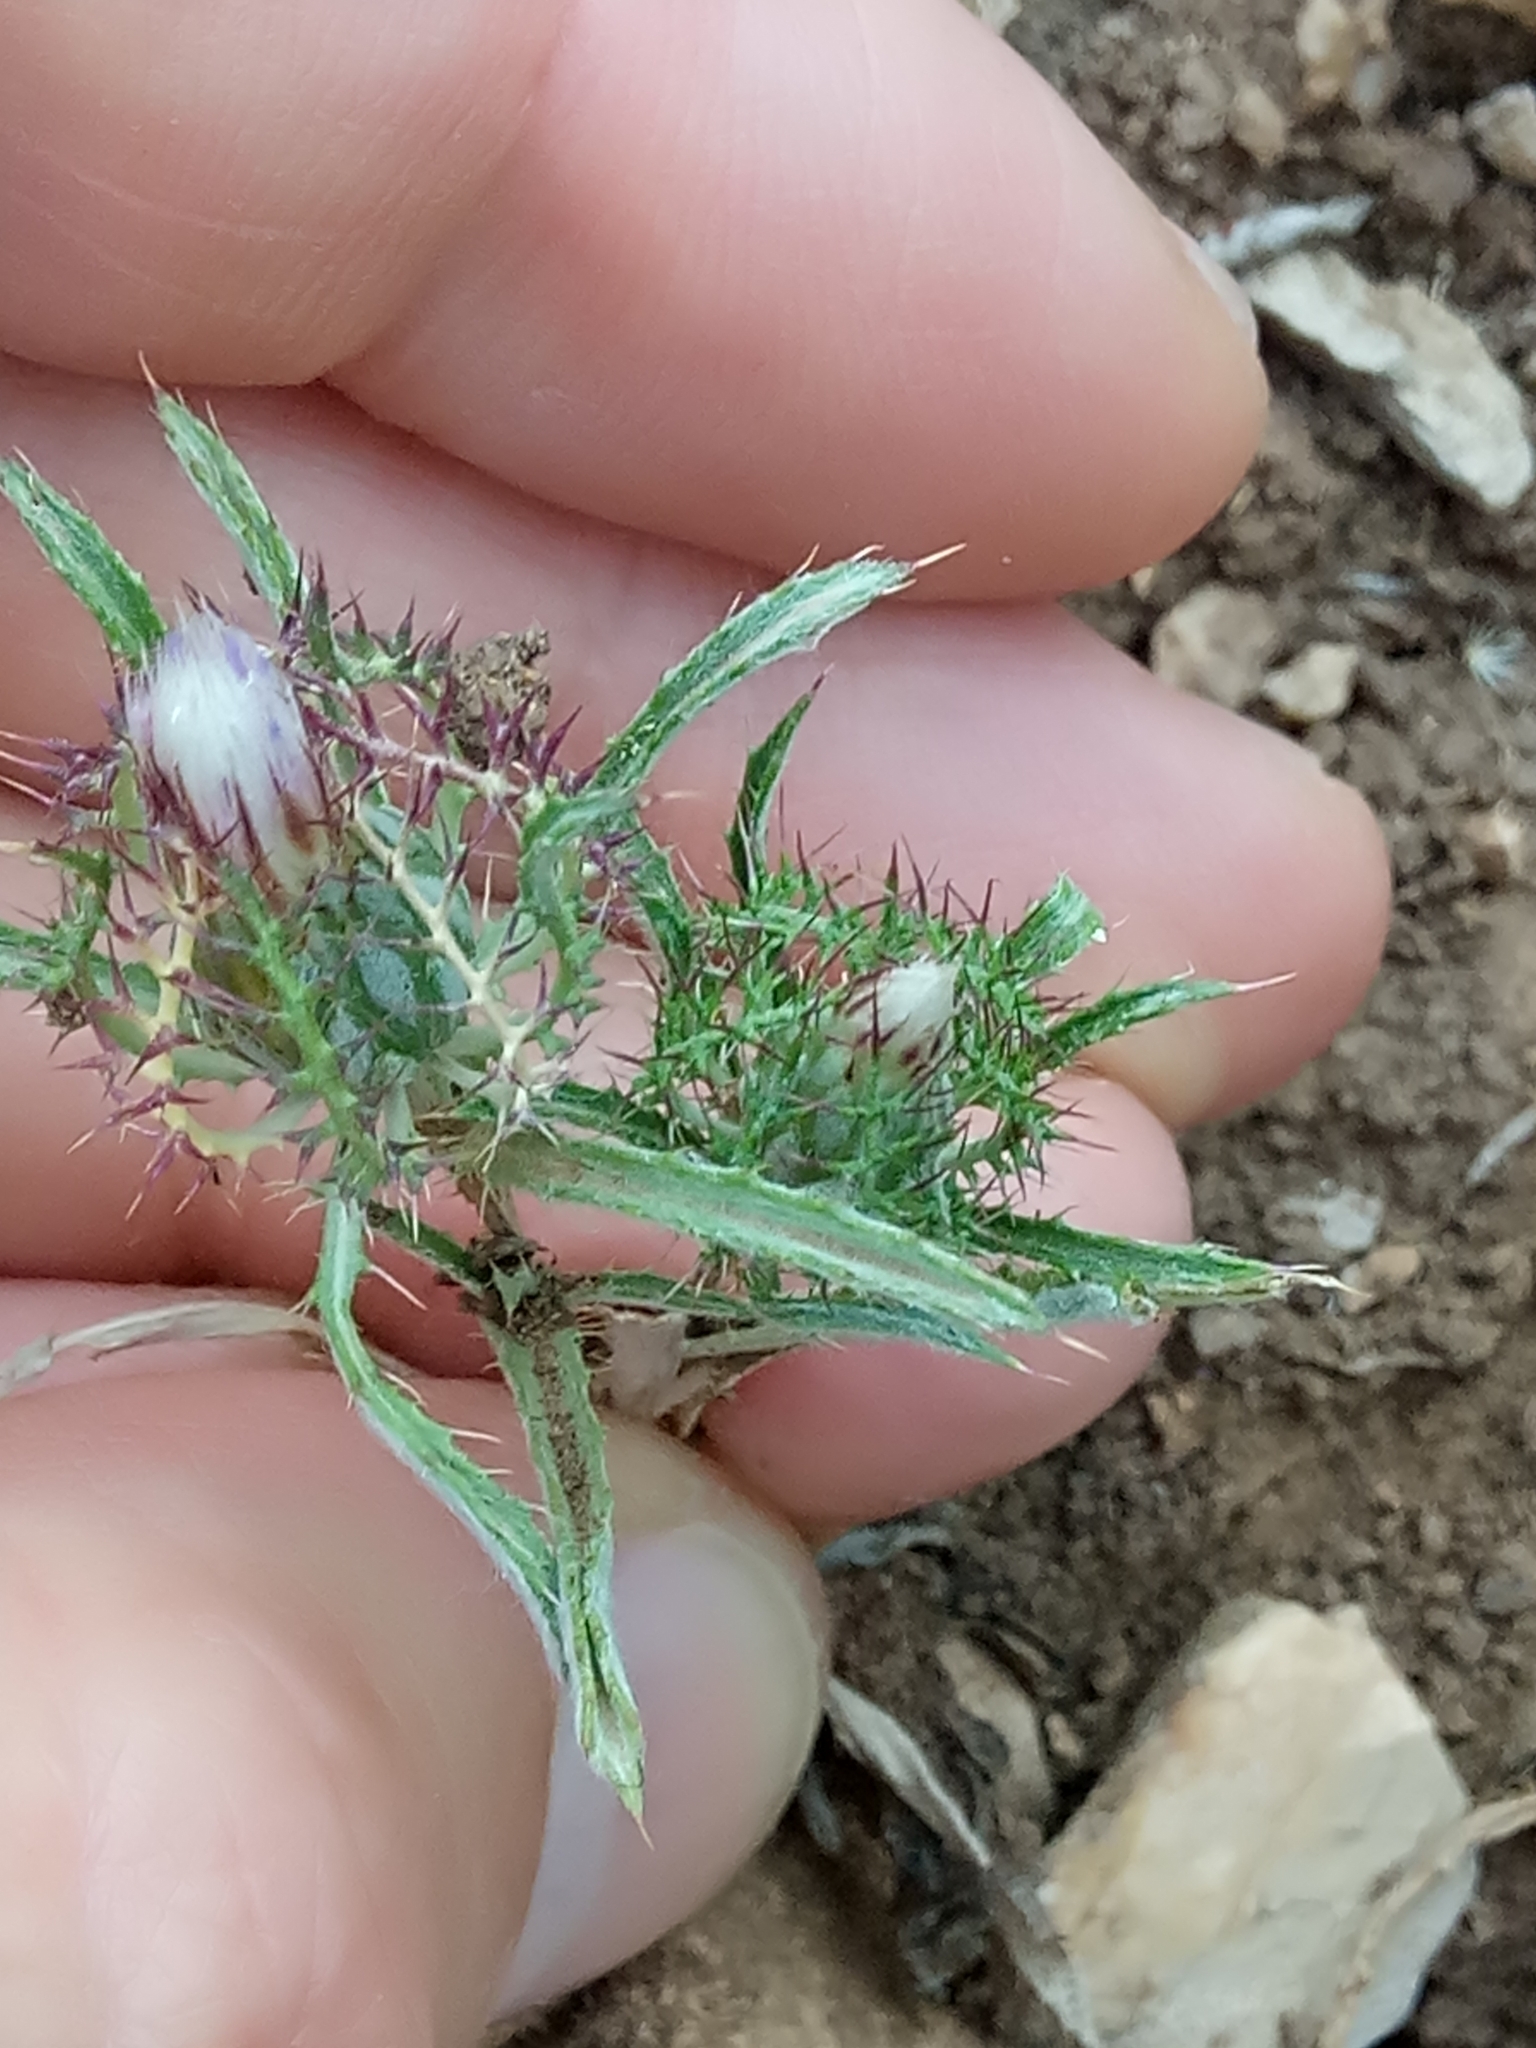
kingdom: Plantae
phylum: Tracheophyta
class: Magnoliopsida
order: Asterales
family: Asteraceae
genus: Atractylis
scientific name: Atractylis cancellata
